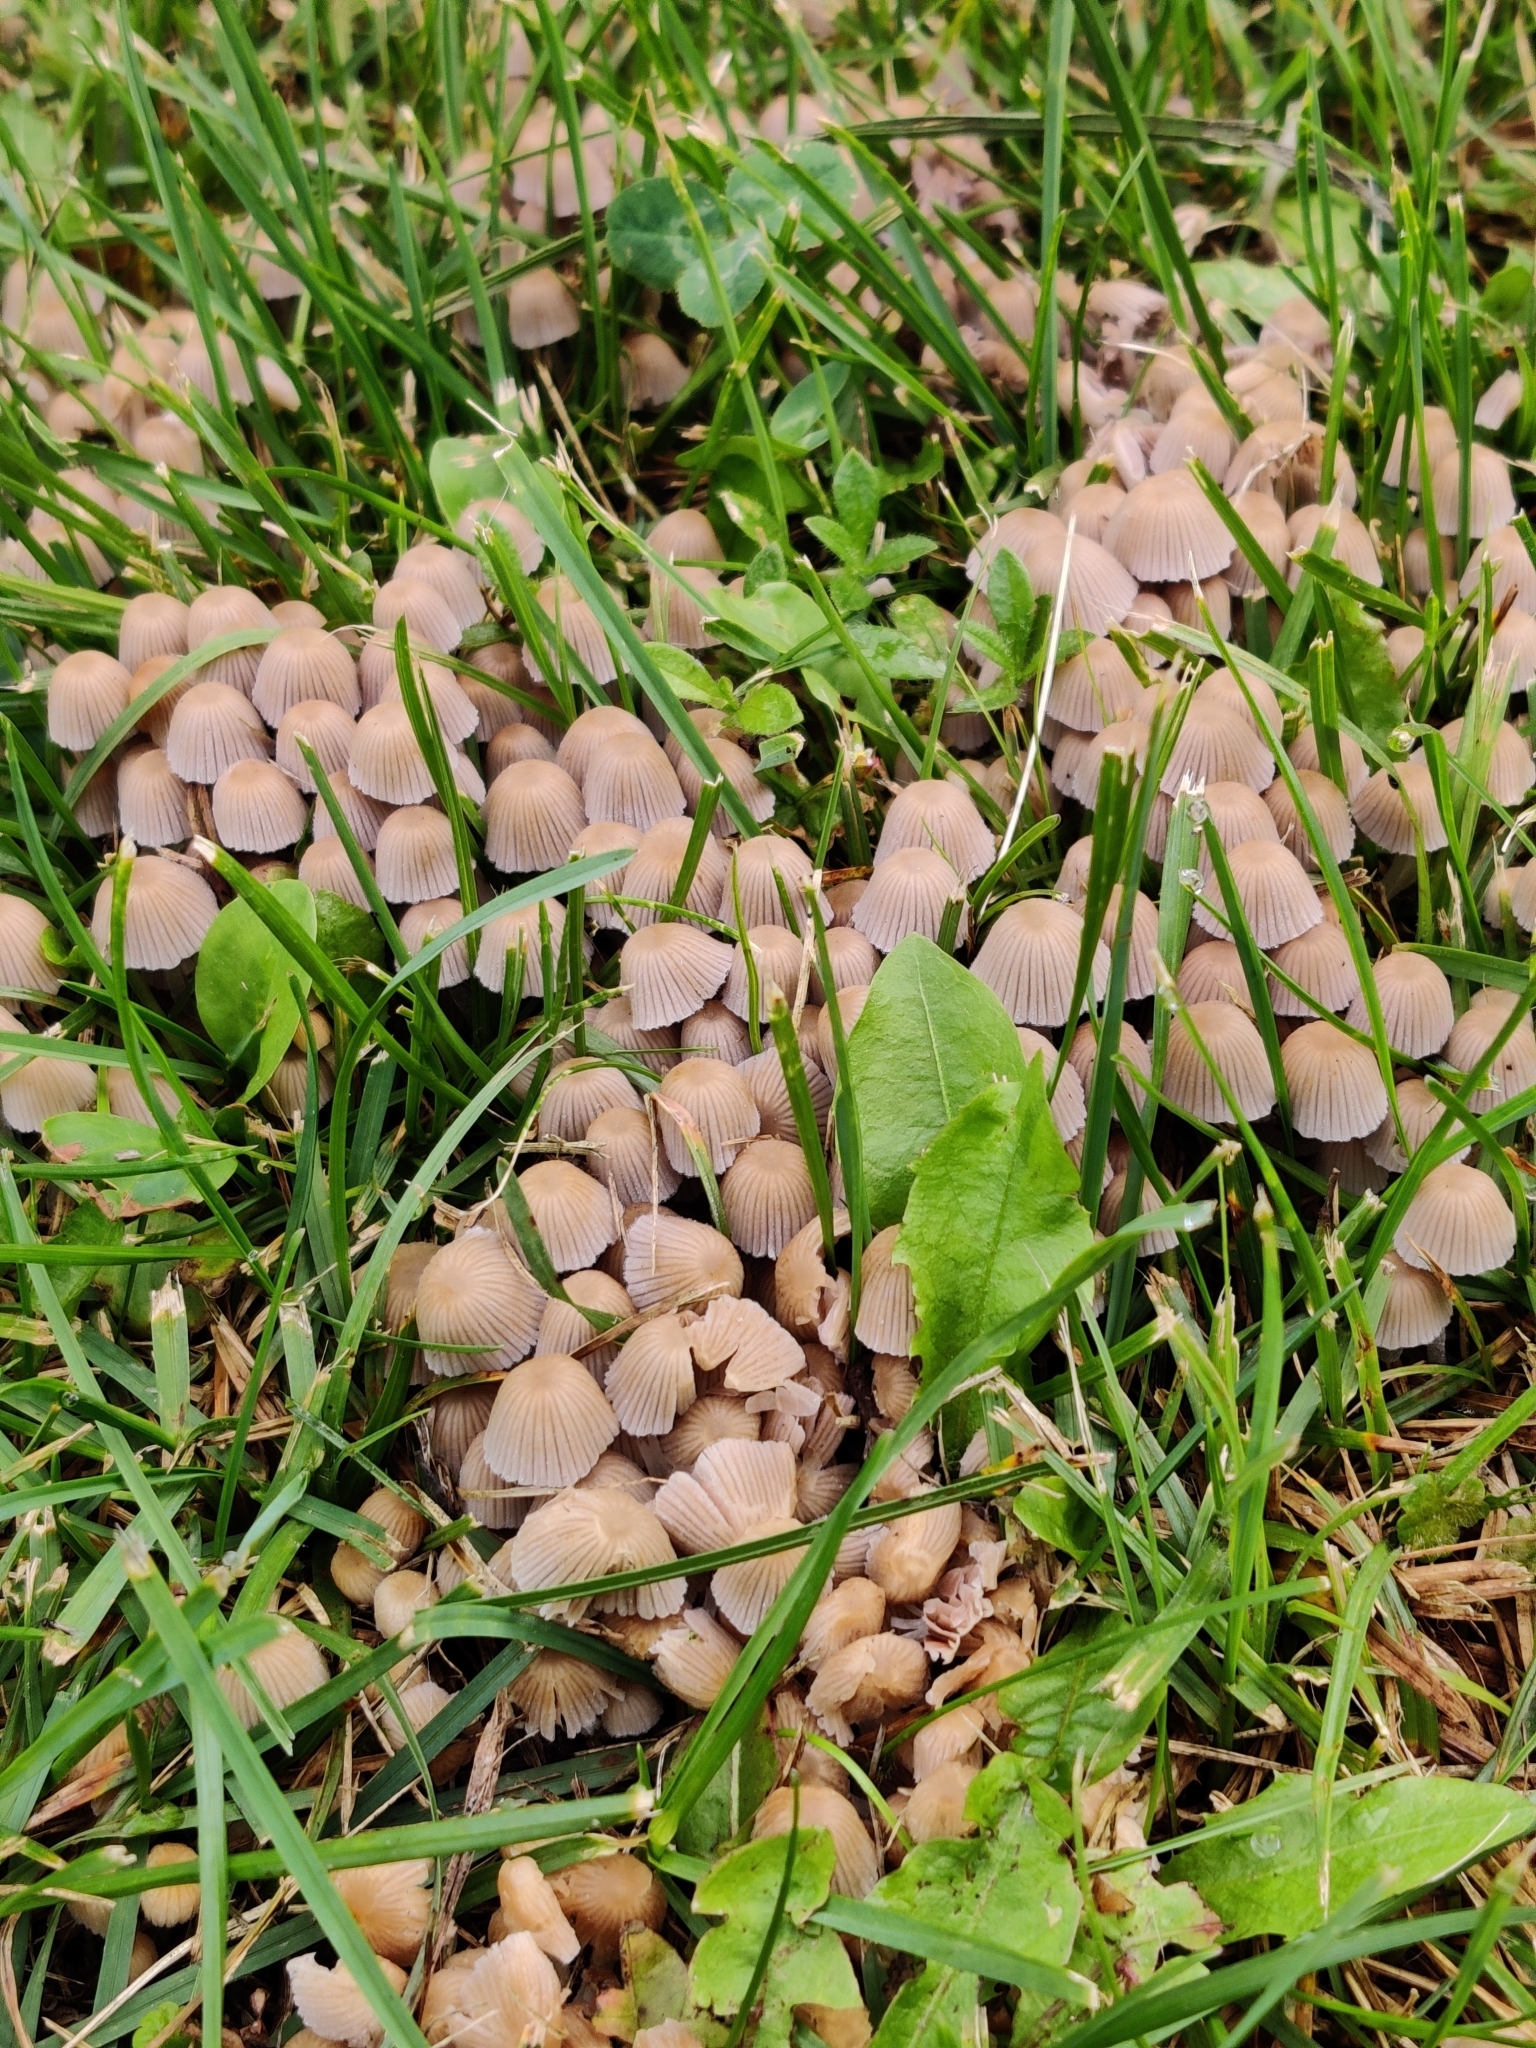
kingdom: Fungi
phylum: Basidiomycota
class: Agaricomycetes
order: Agaricales
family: Psathyrellaceae
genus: Coprinellus
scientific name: Coprinellus disseminatus
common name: Fairies' bonnets
